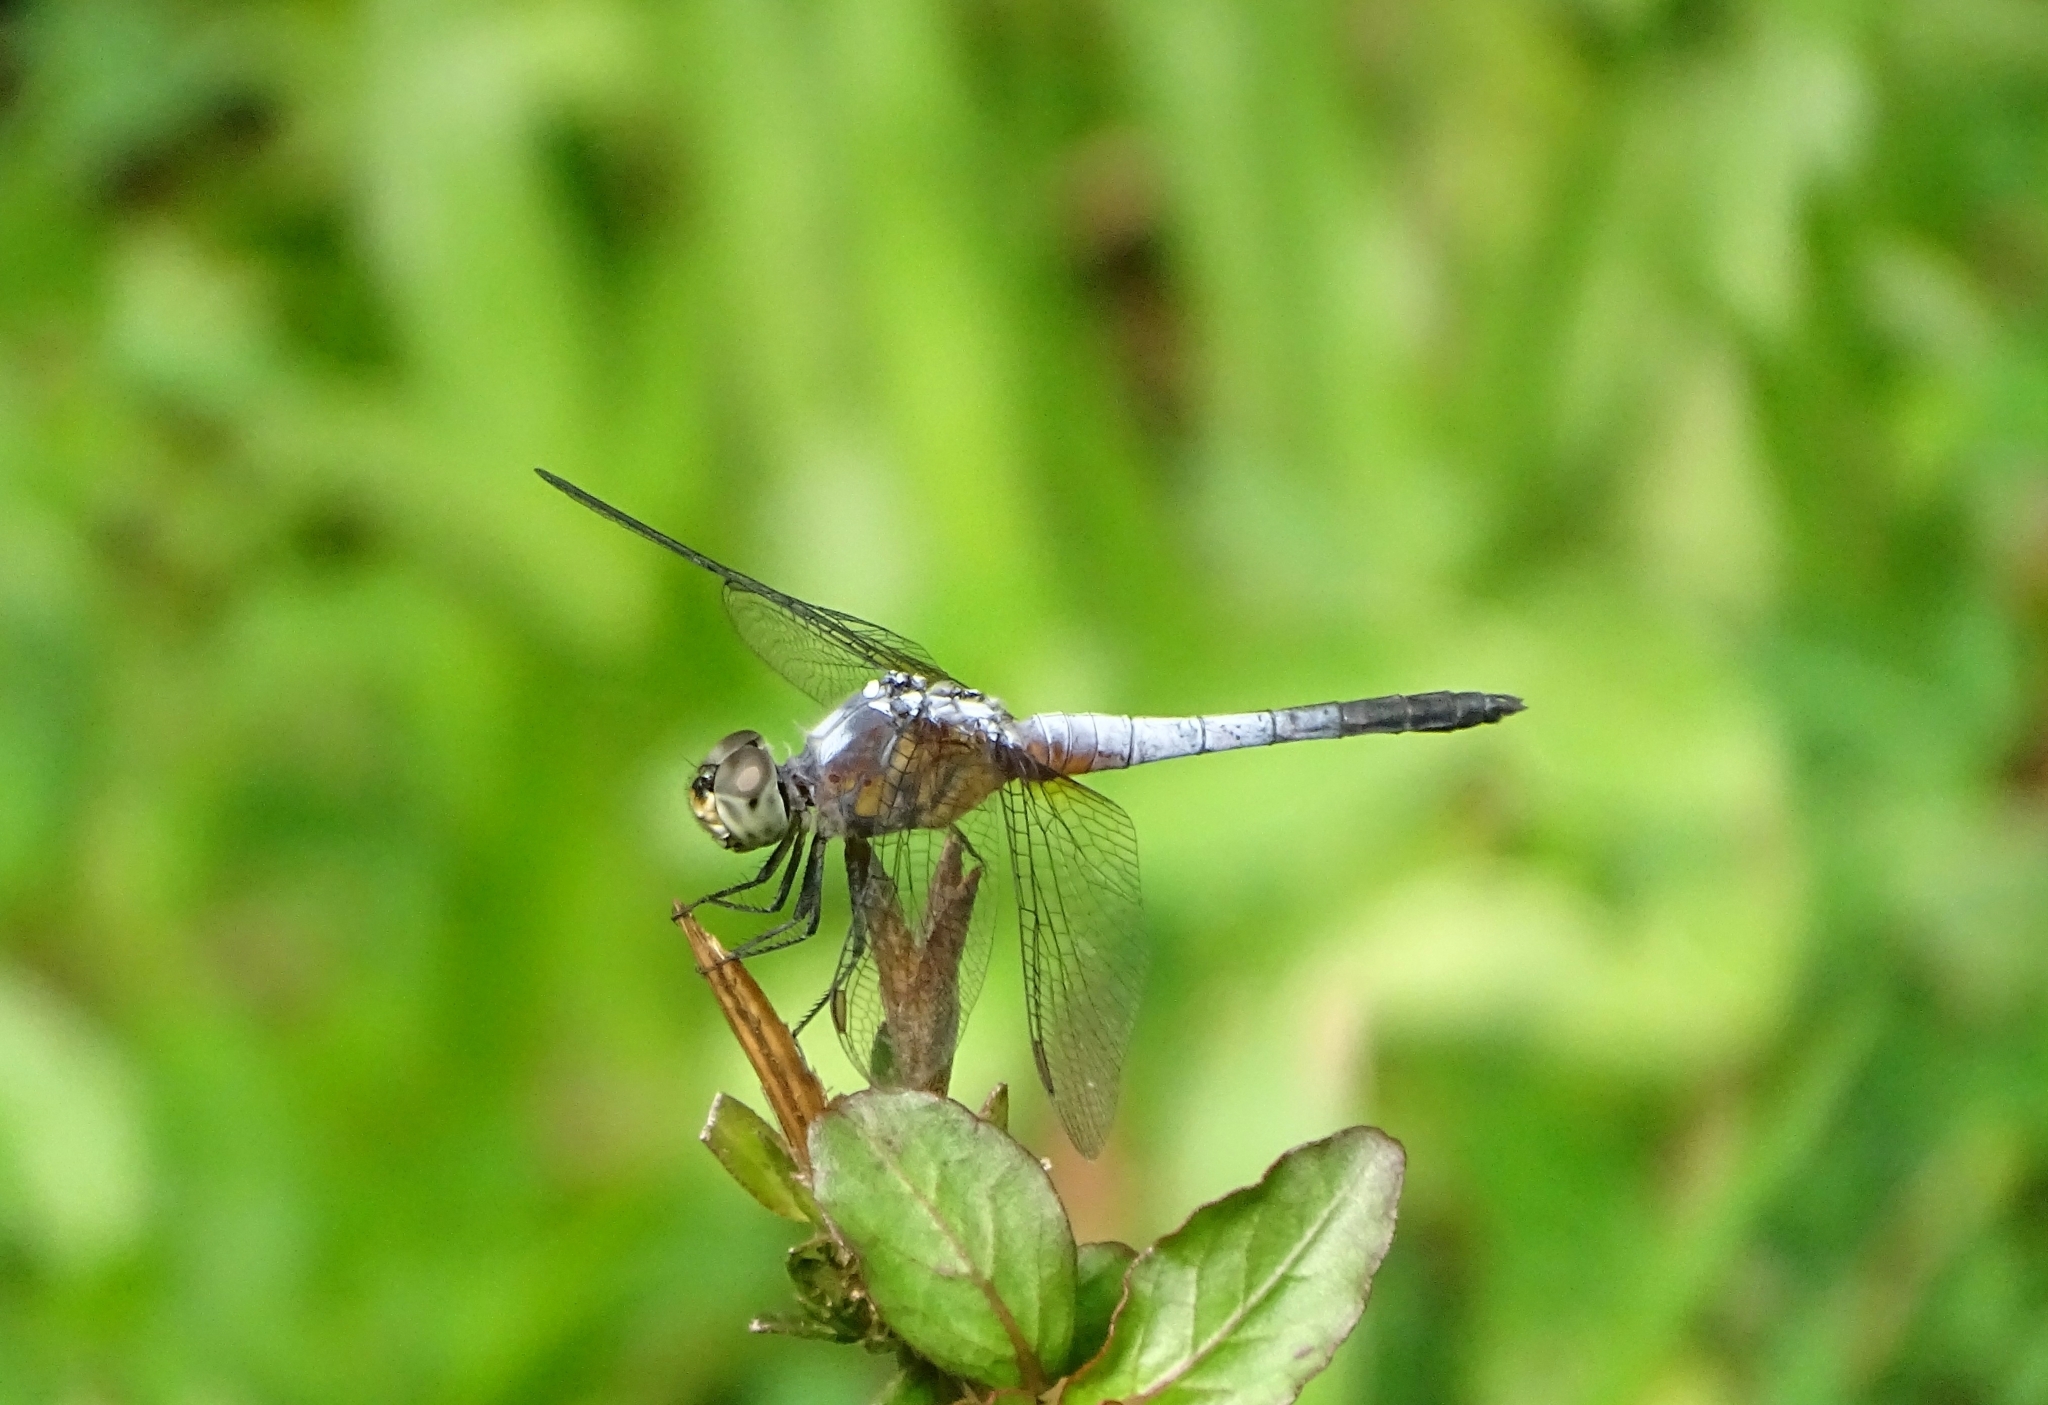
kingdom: Animalia
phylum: Arthropoda
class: Insecta
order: Odonata
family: Libellulidae
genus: Brachydiplax
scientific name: Brachydiplax chalybea
